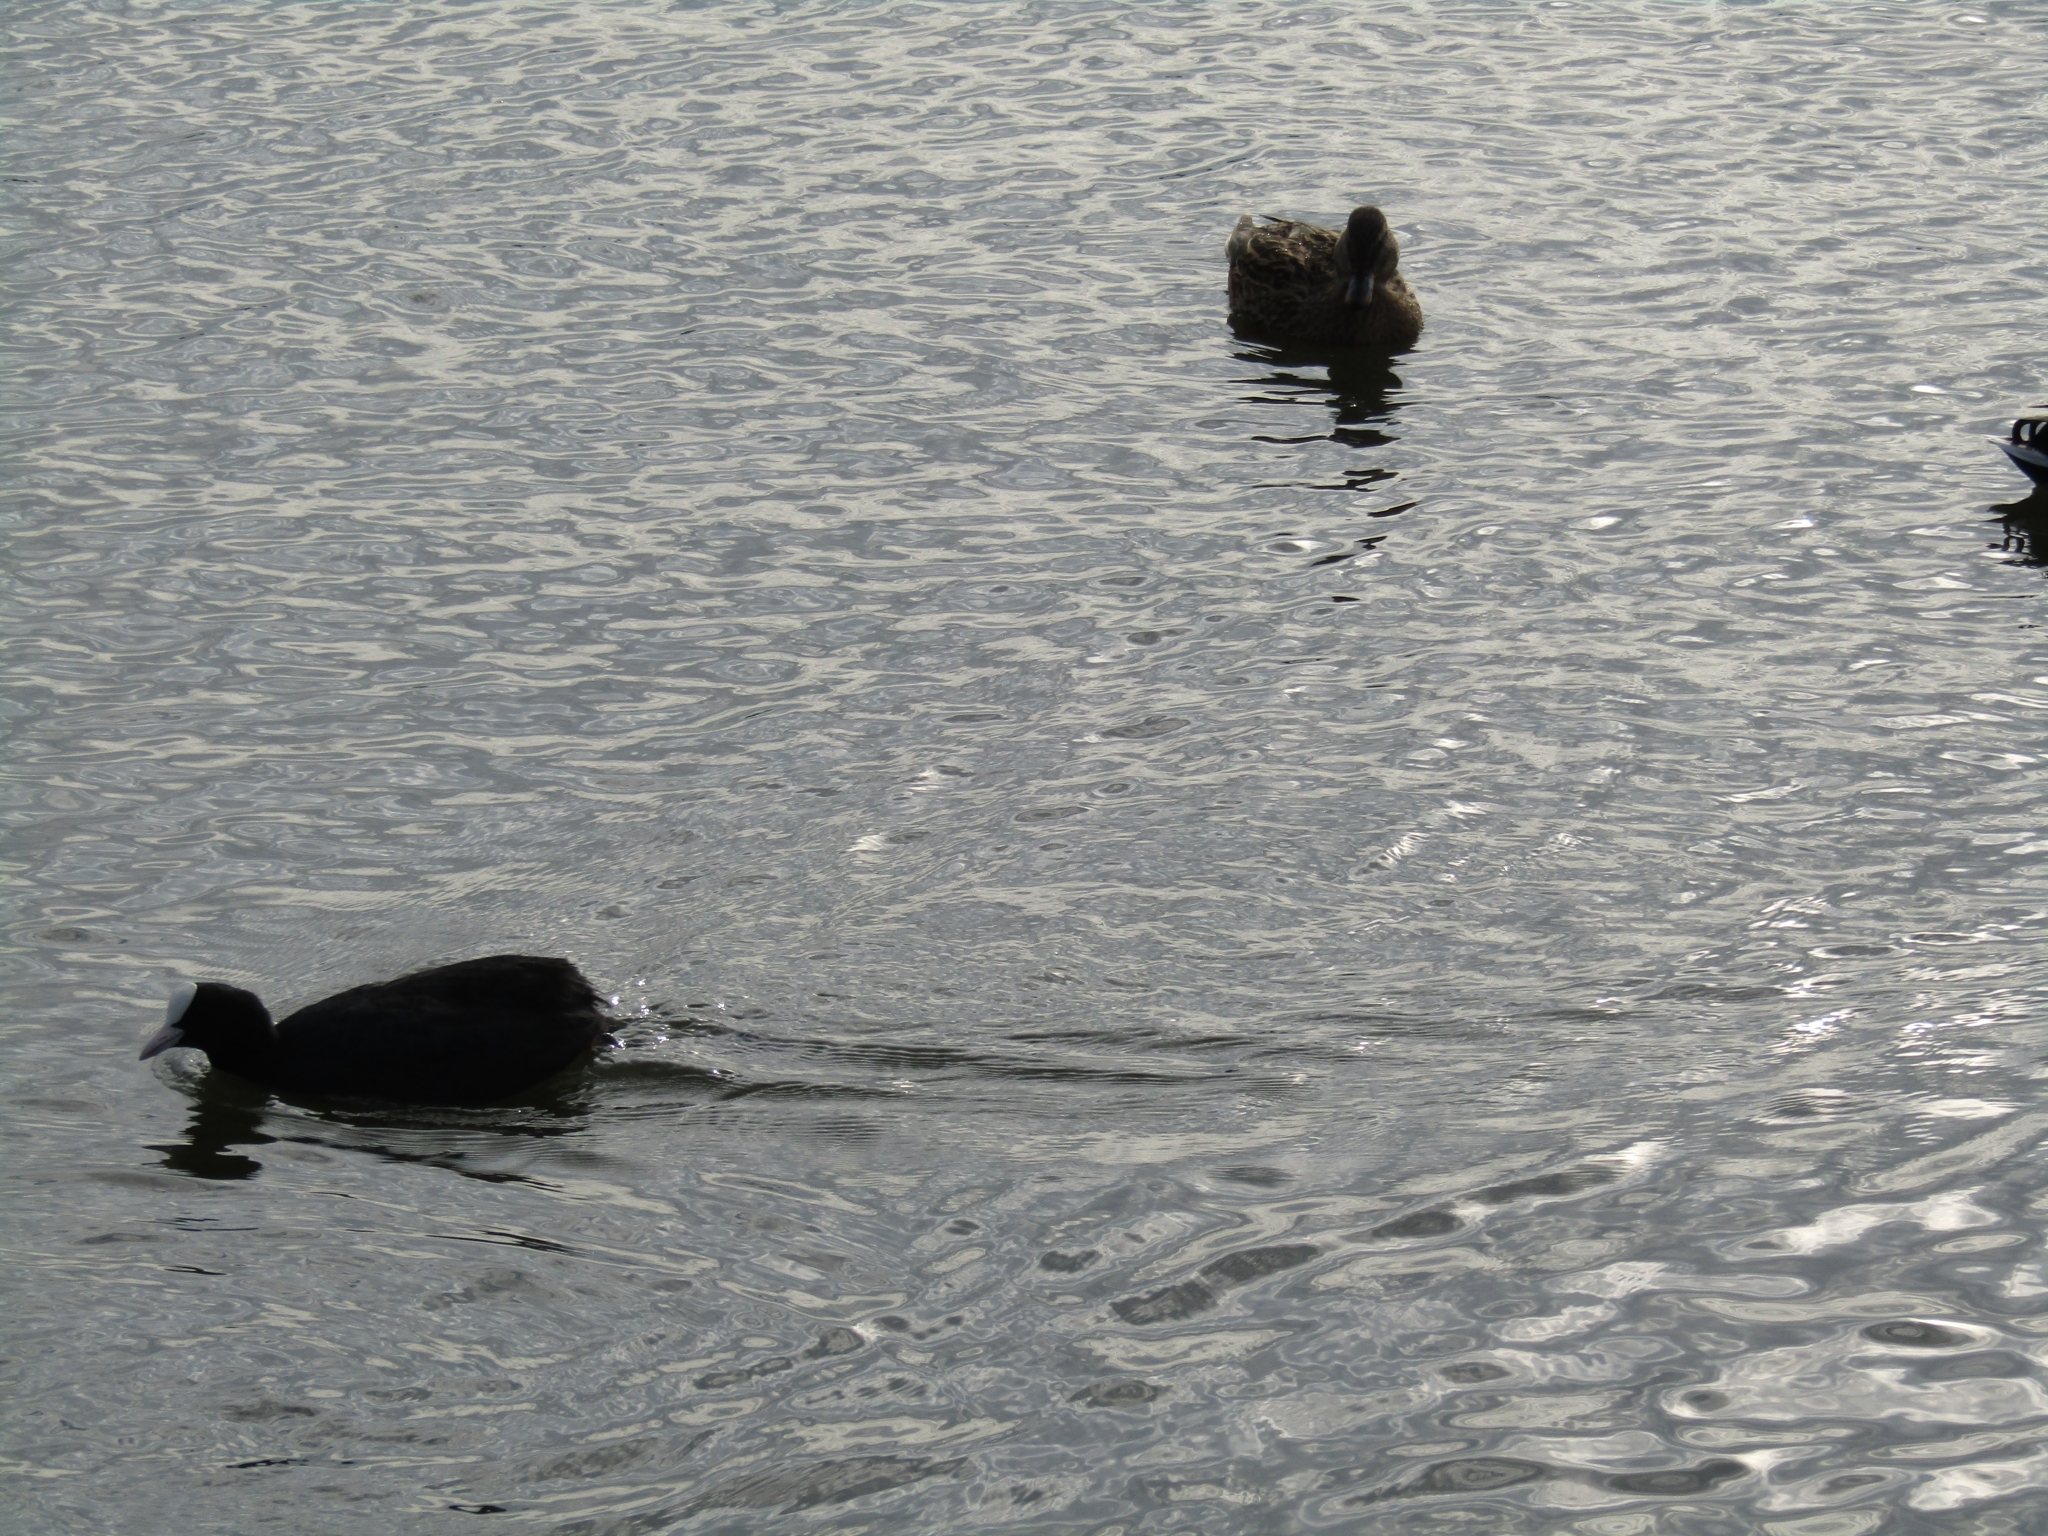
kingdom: Animalia
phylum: Chordata
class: Aves
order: Gruiformes
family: Rallidae
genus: Fulica
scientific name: Fulica atra
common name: Eurasian coot
